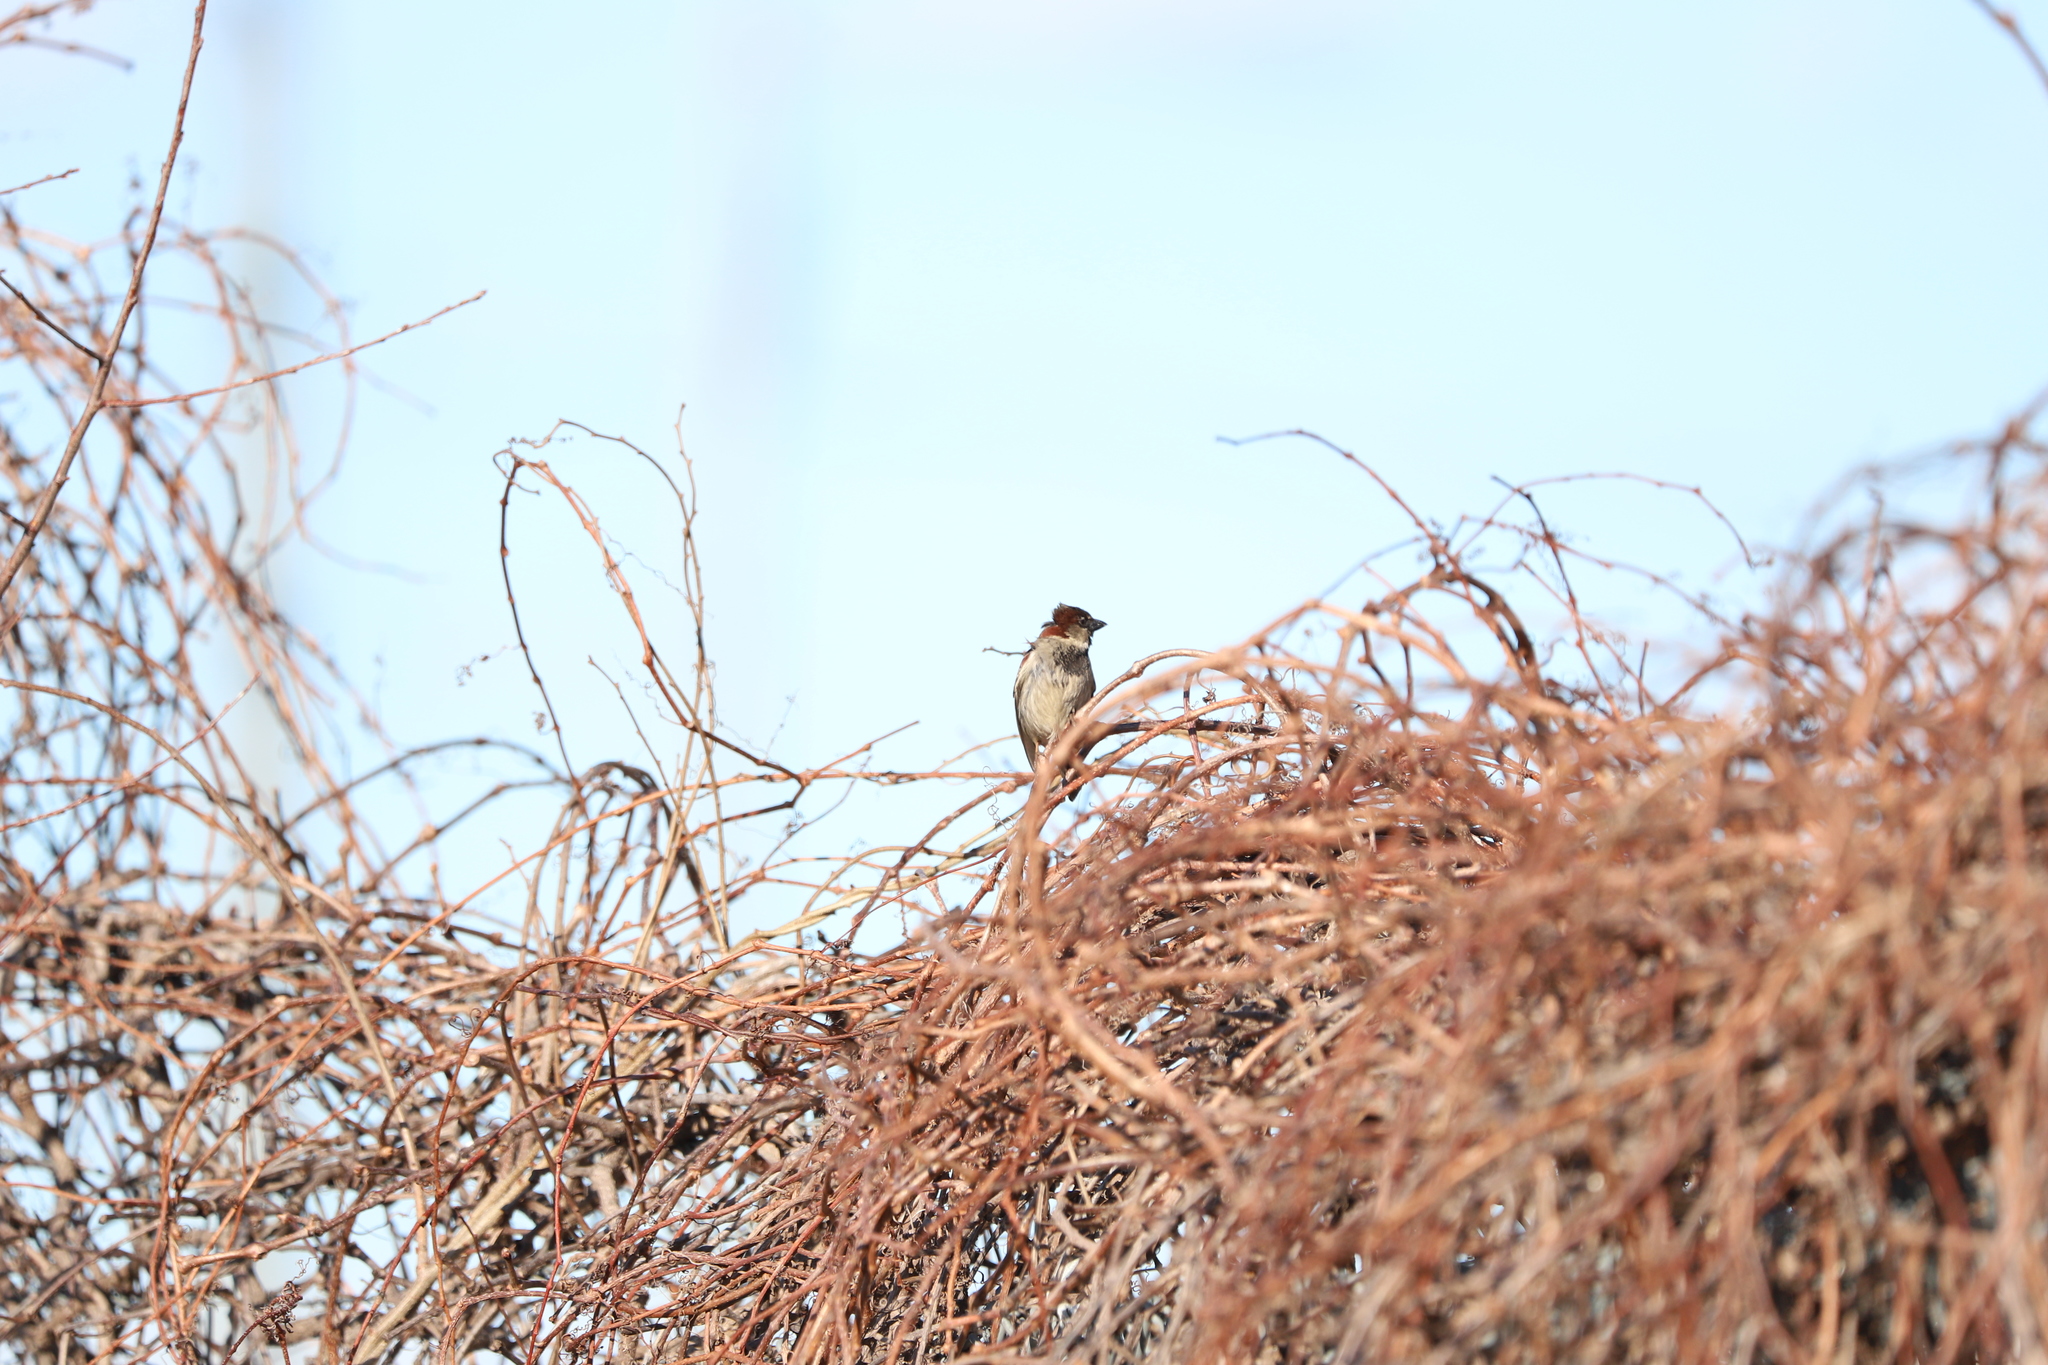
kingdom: Animalia
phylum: Chordata
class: Aves
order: Passeriformes
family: Passeridae
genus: Passer
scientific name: Passer domesticus
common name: House sparrow
